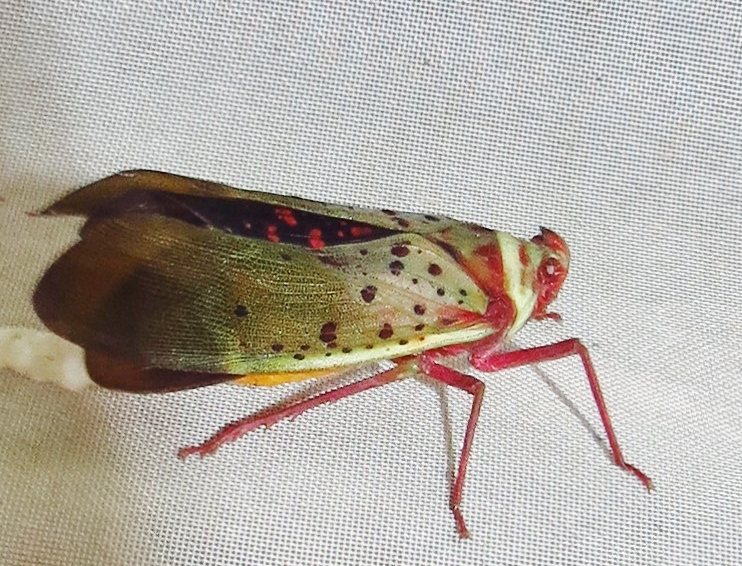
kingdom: Animalia
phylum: Arthropoda
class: Insecta
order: Hemiptera
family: Fulgoridae
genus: Copidocephala
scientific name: Copidocephala guttata
